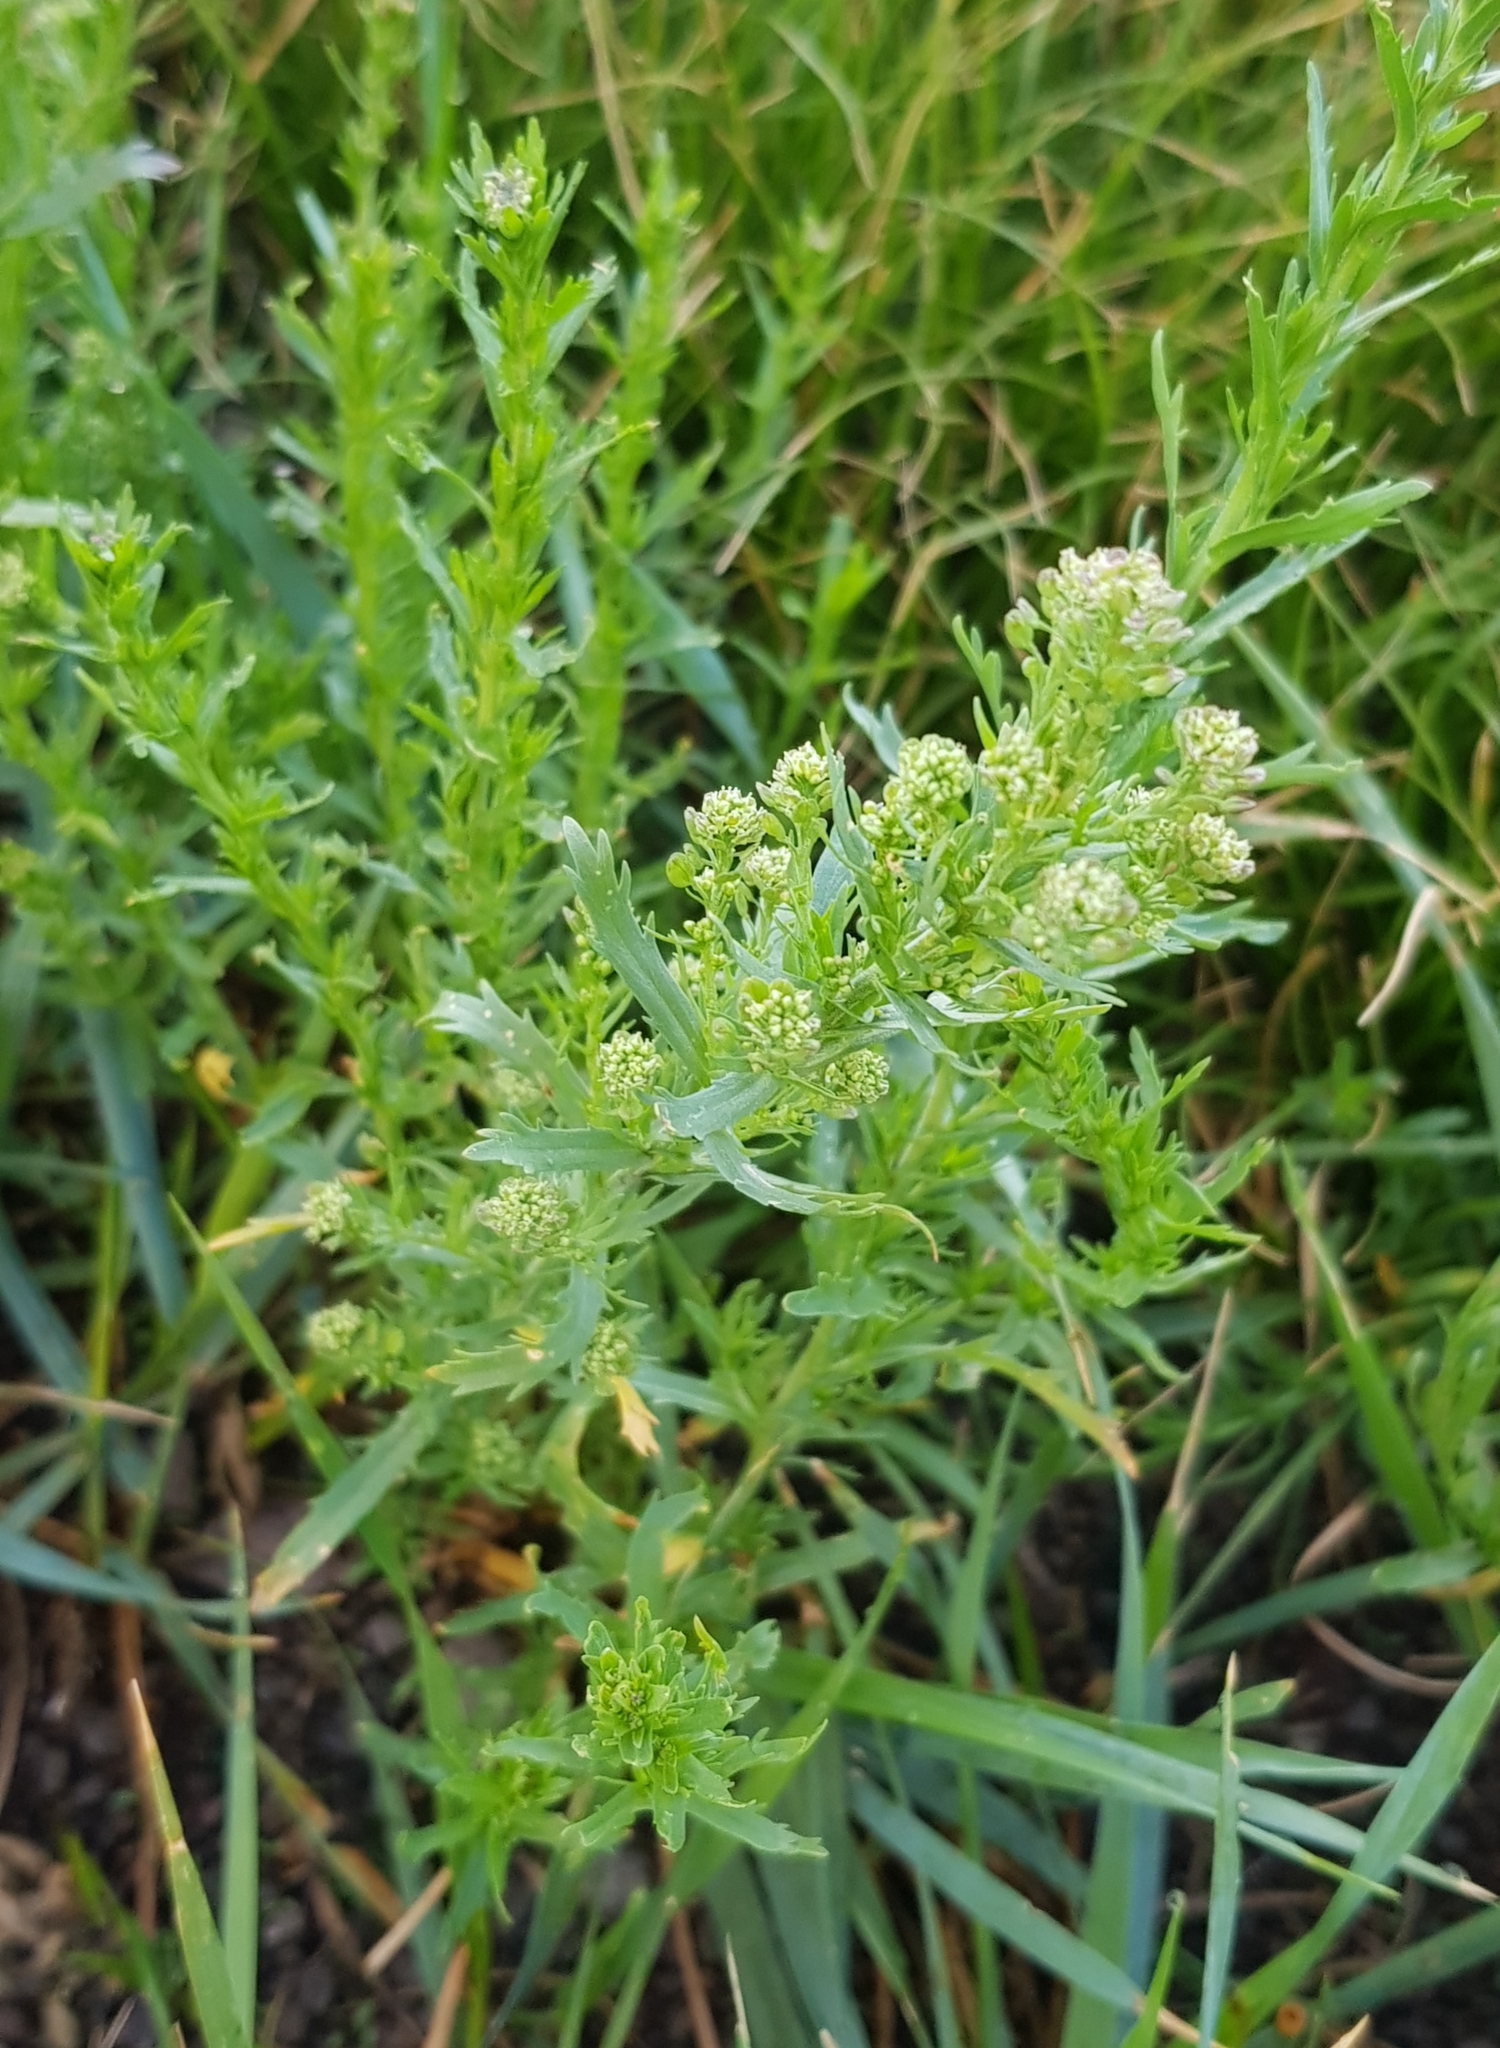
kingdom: Plantae
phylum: Tracheophyta
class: Magnoliopsida
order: Brassicales
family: Brassicaceae
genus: Lepidium
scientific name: Lepidium densiflorum
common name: Miner's pepperwort
